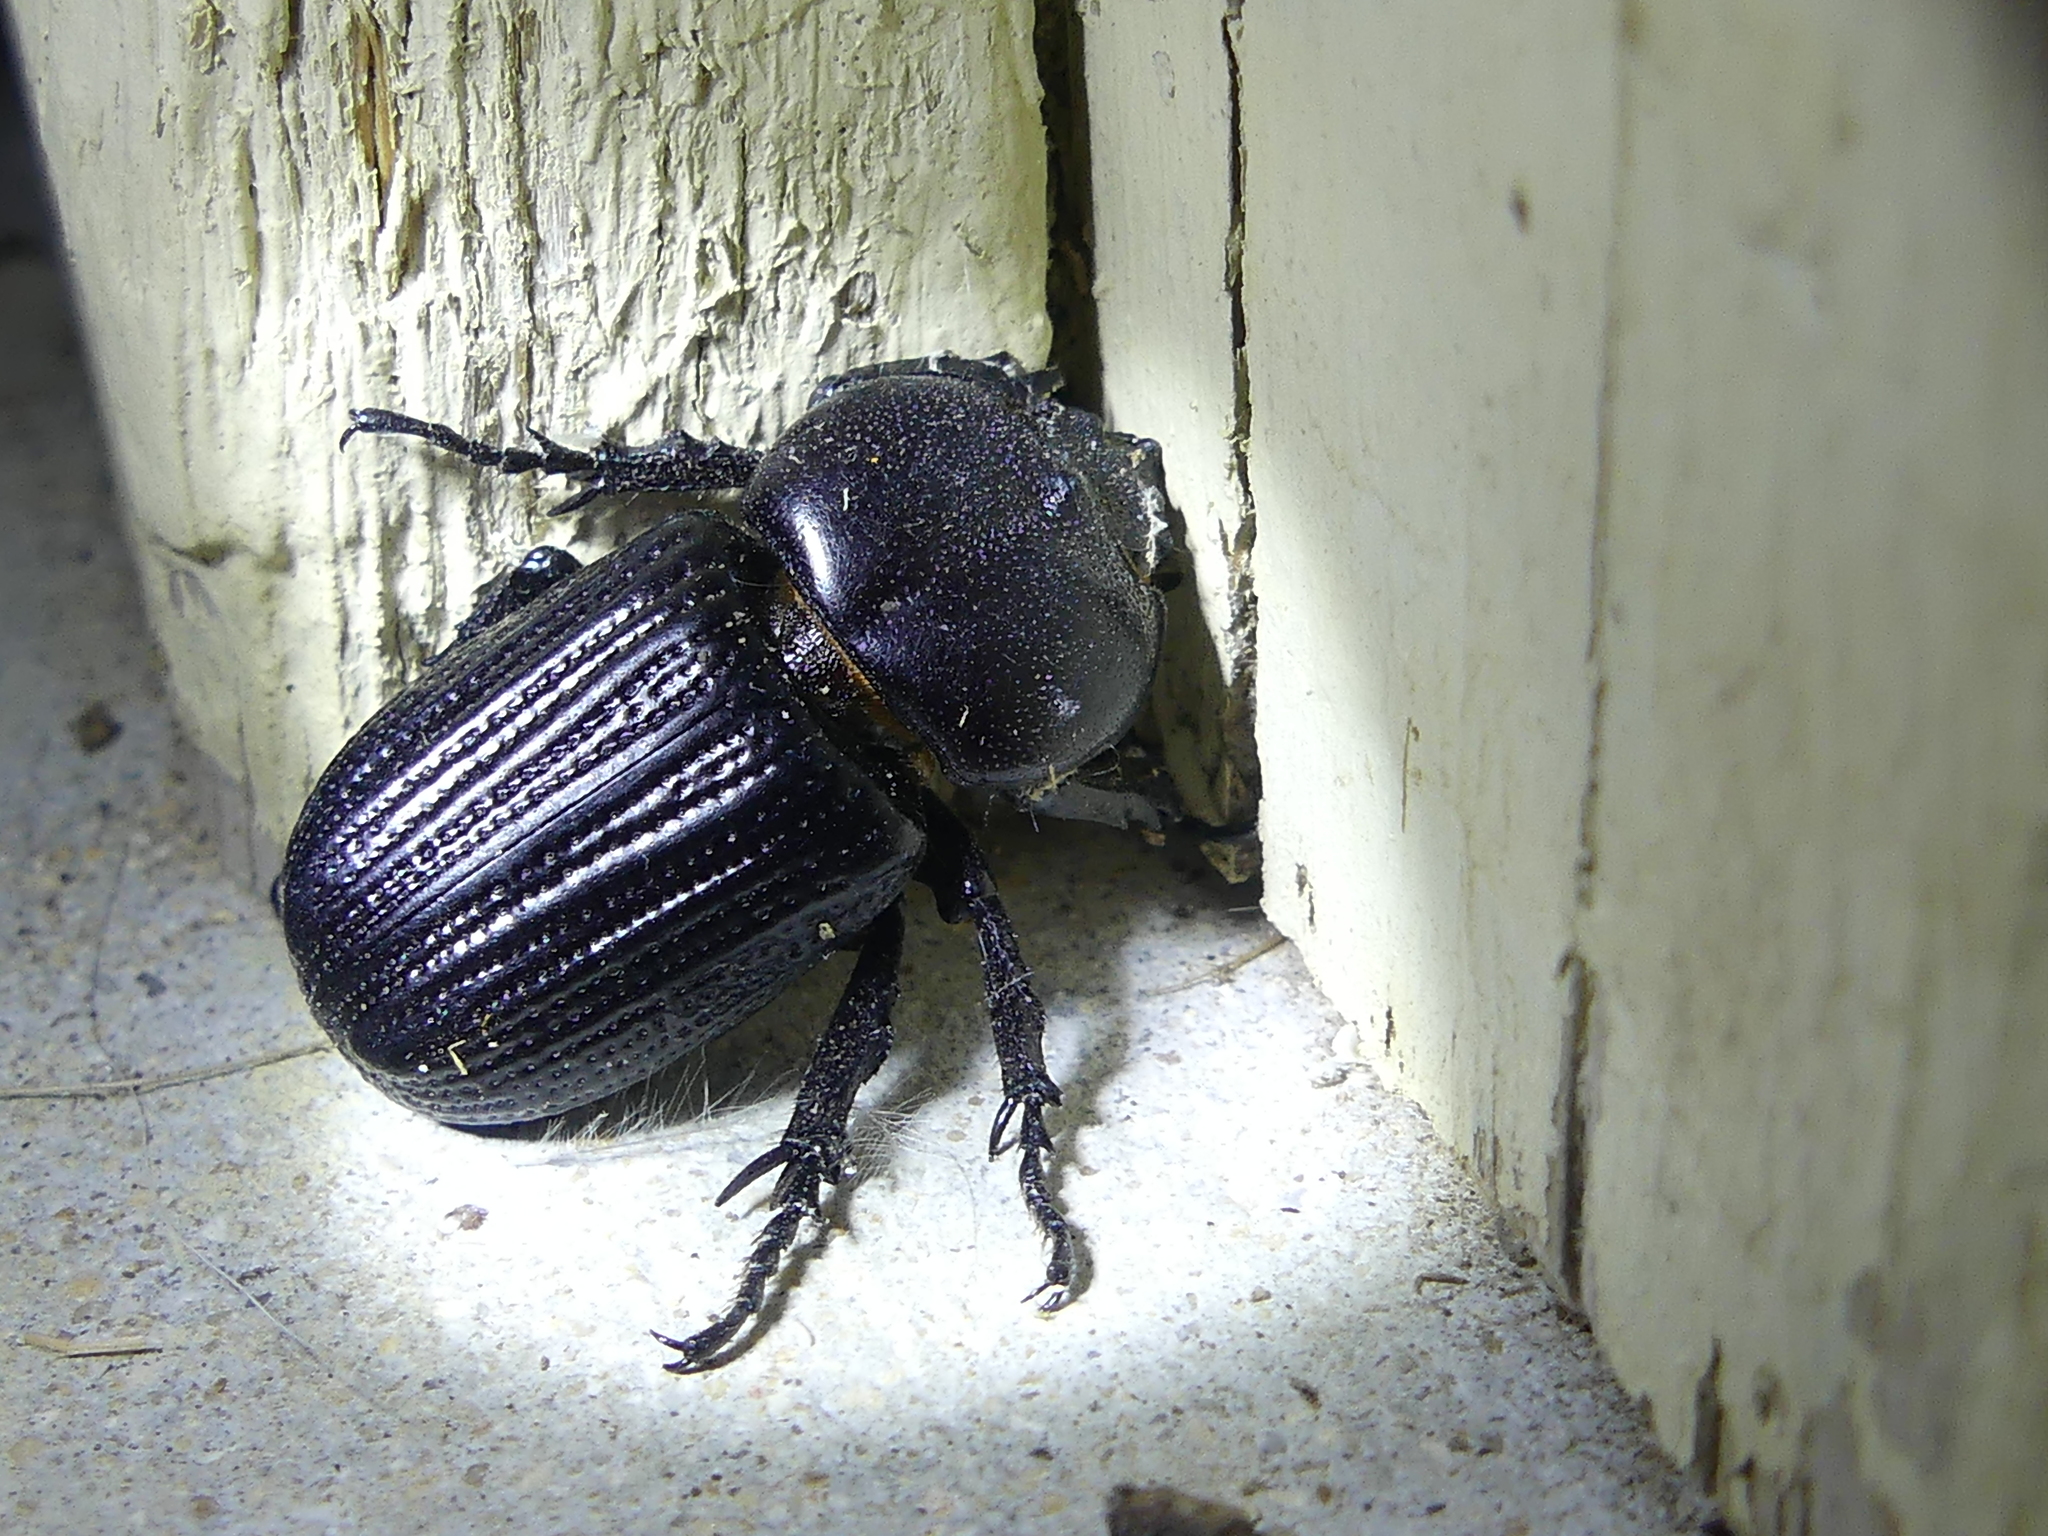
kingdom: Animalia
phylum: Arthropoda
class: Insecta
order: Coleoptera
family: Scarabaeidae
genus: Phileurus
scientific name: Phileurus valgus
